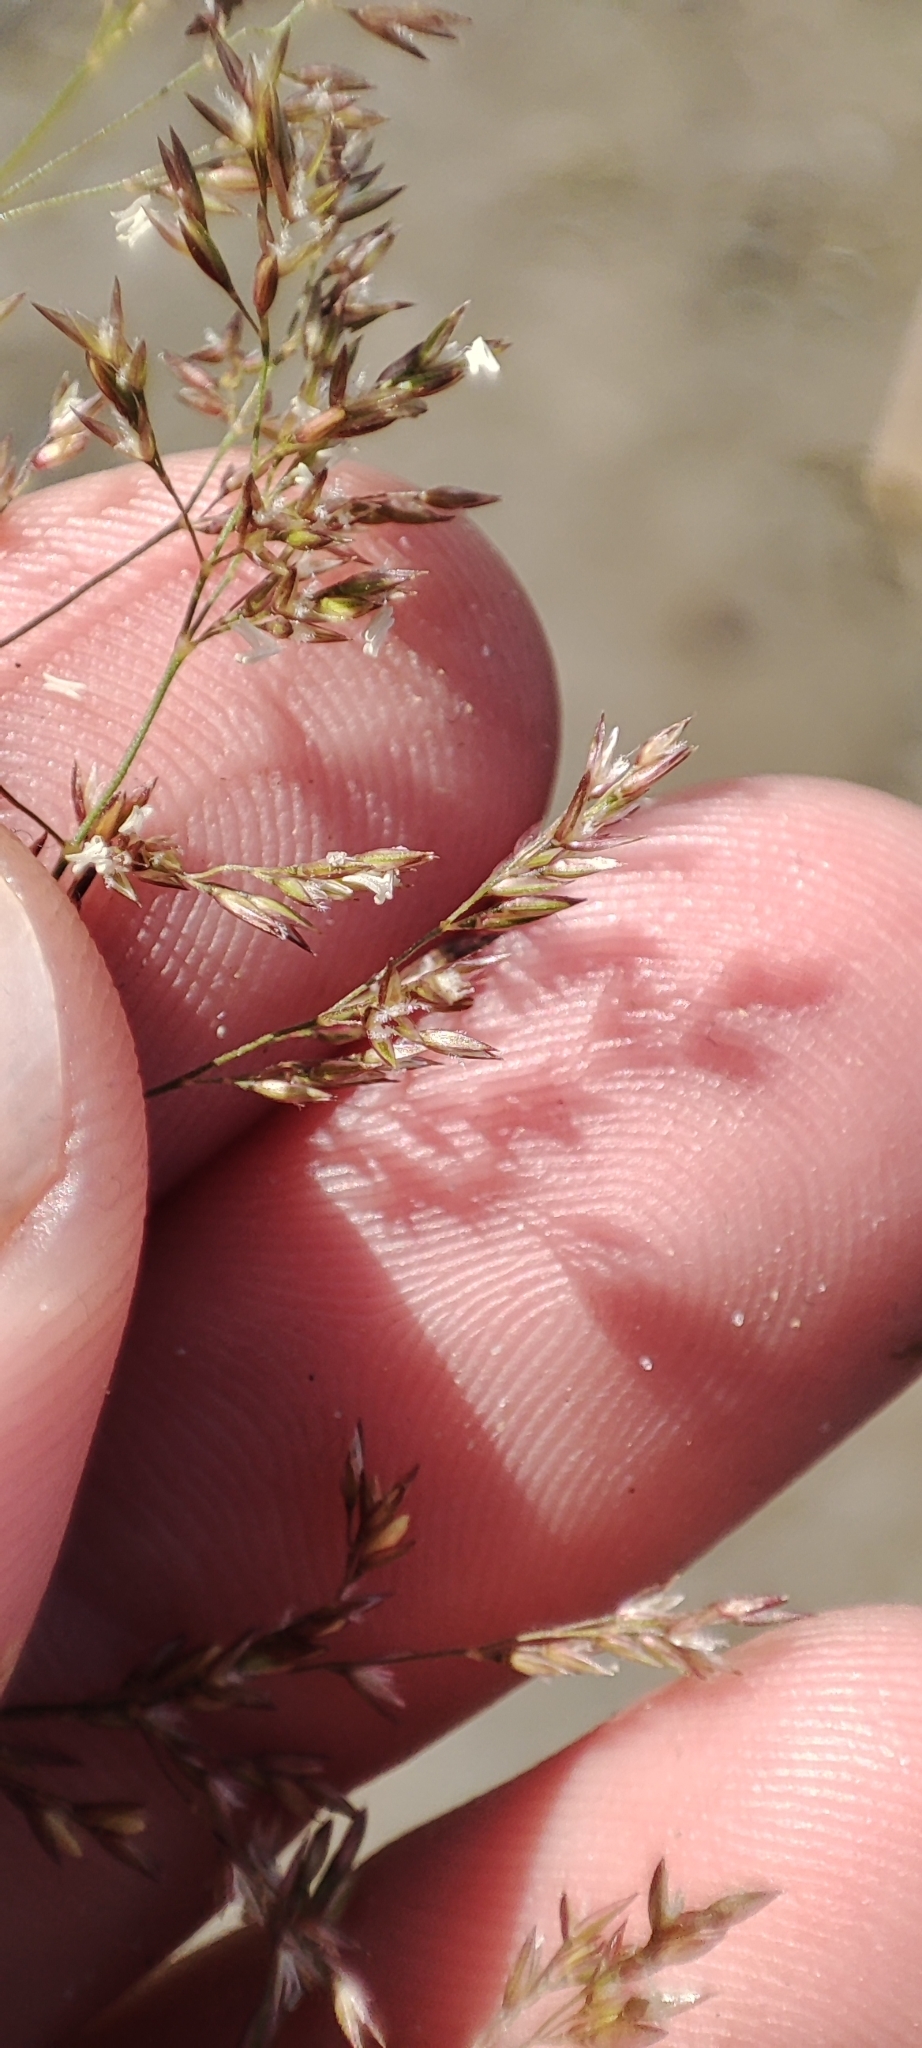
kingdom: Plantae
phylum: Tracheophyta
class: Liliopsida
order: Poales
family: Poaceae
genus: Agrostis
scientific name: Agrostis stolonifera
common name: Creeping bentgrass
